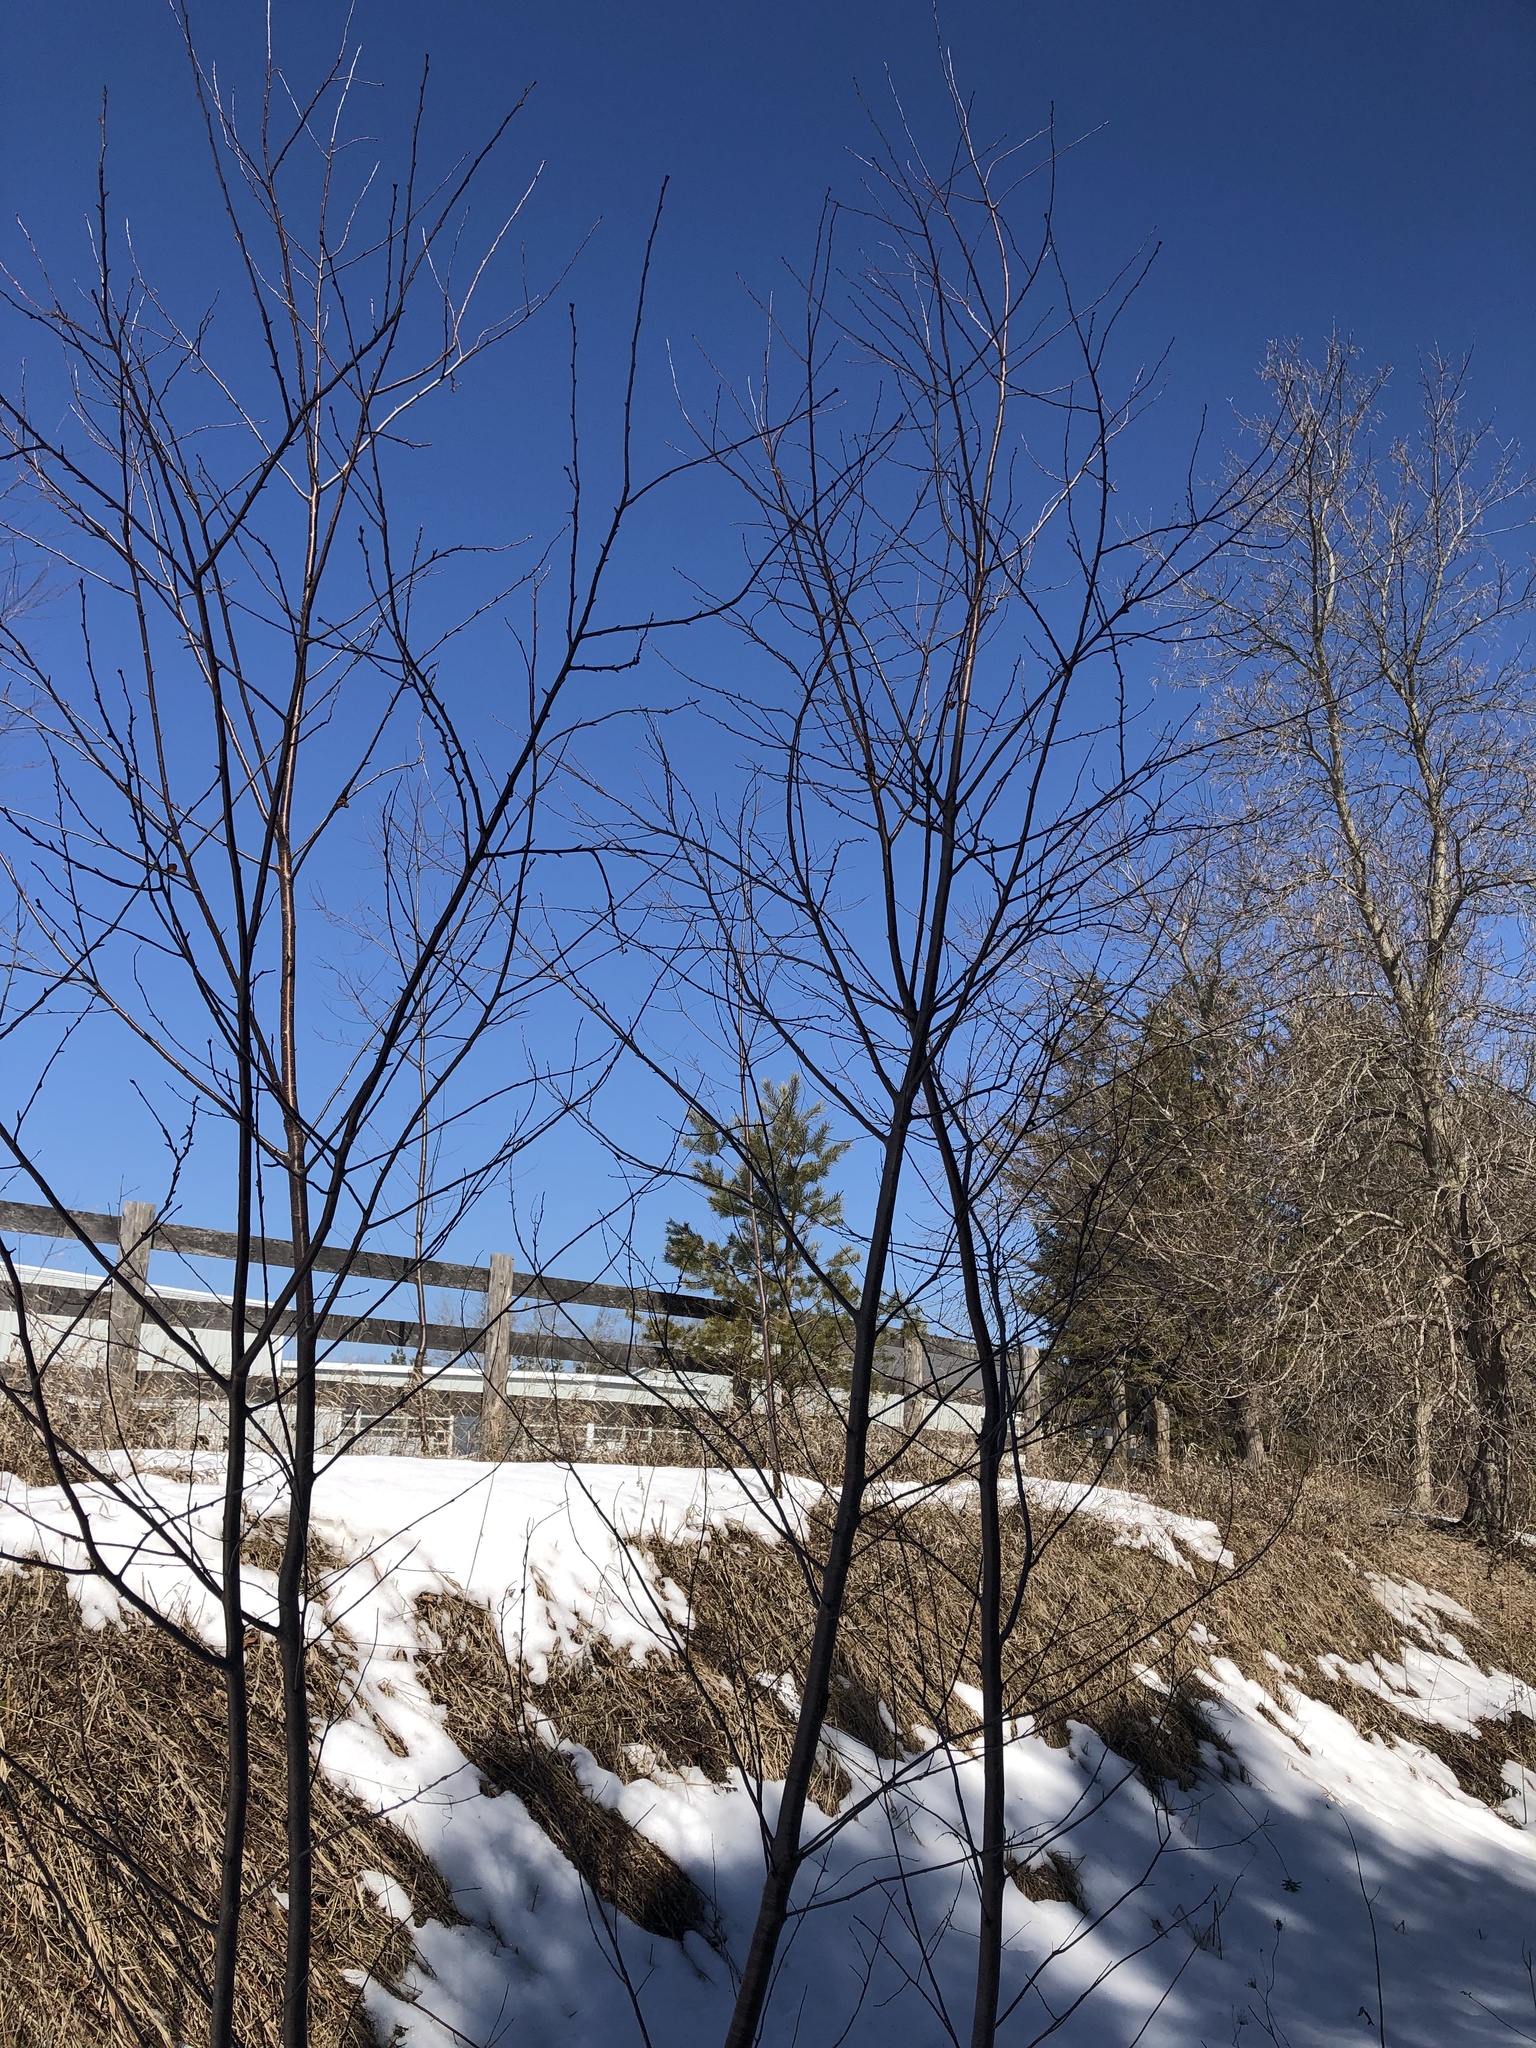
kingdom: Plantae
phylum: Tracheophyta
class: Magnoliopsida
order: Rosales
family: Rhamnaceae
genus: Rhamnus
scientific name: Rhamnus cathartica
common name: Common buckthorn
